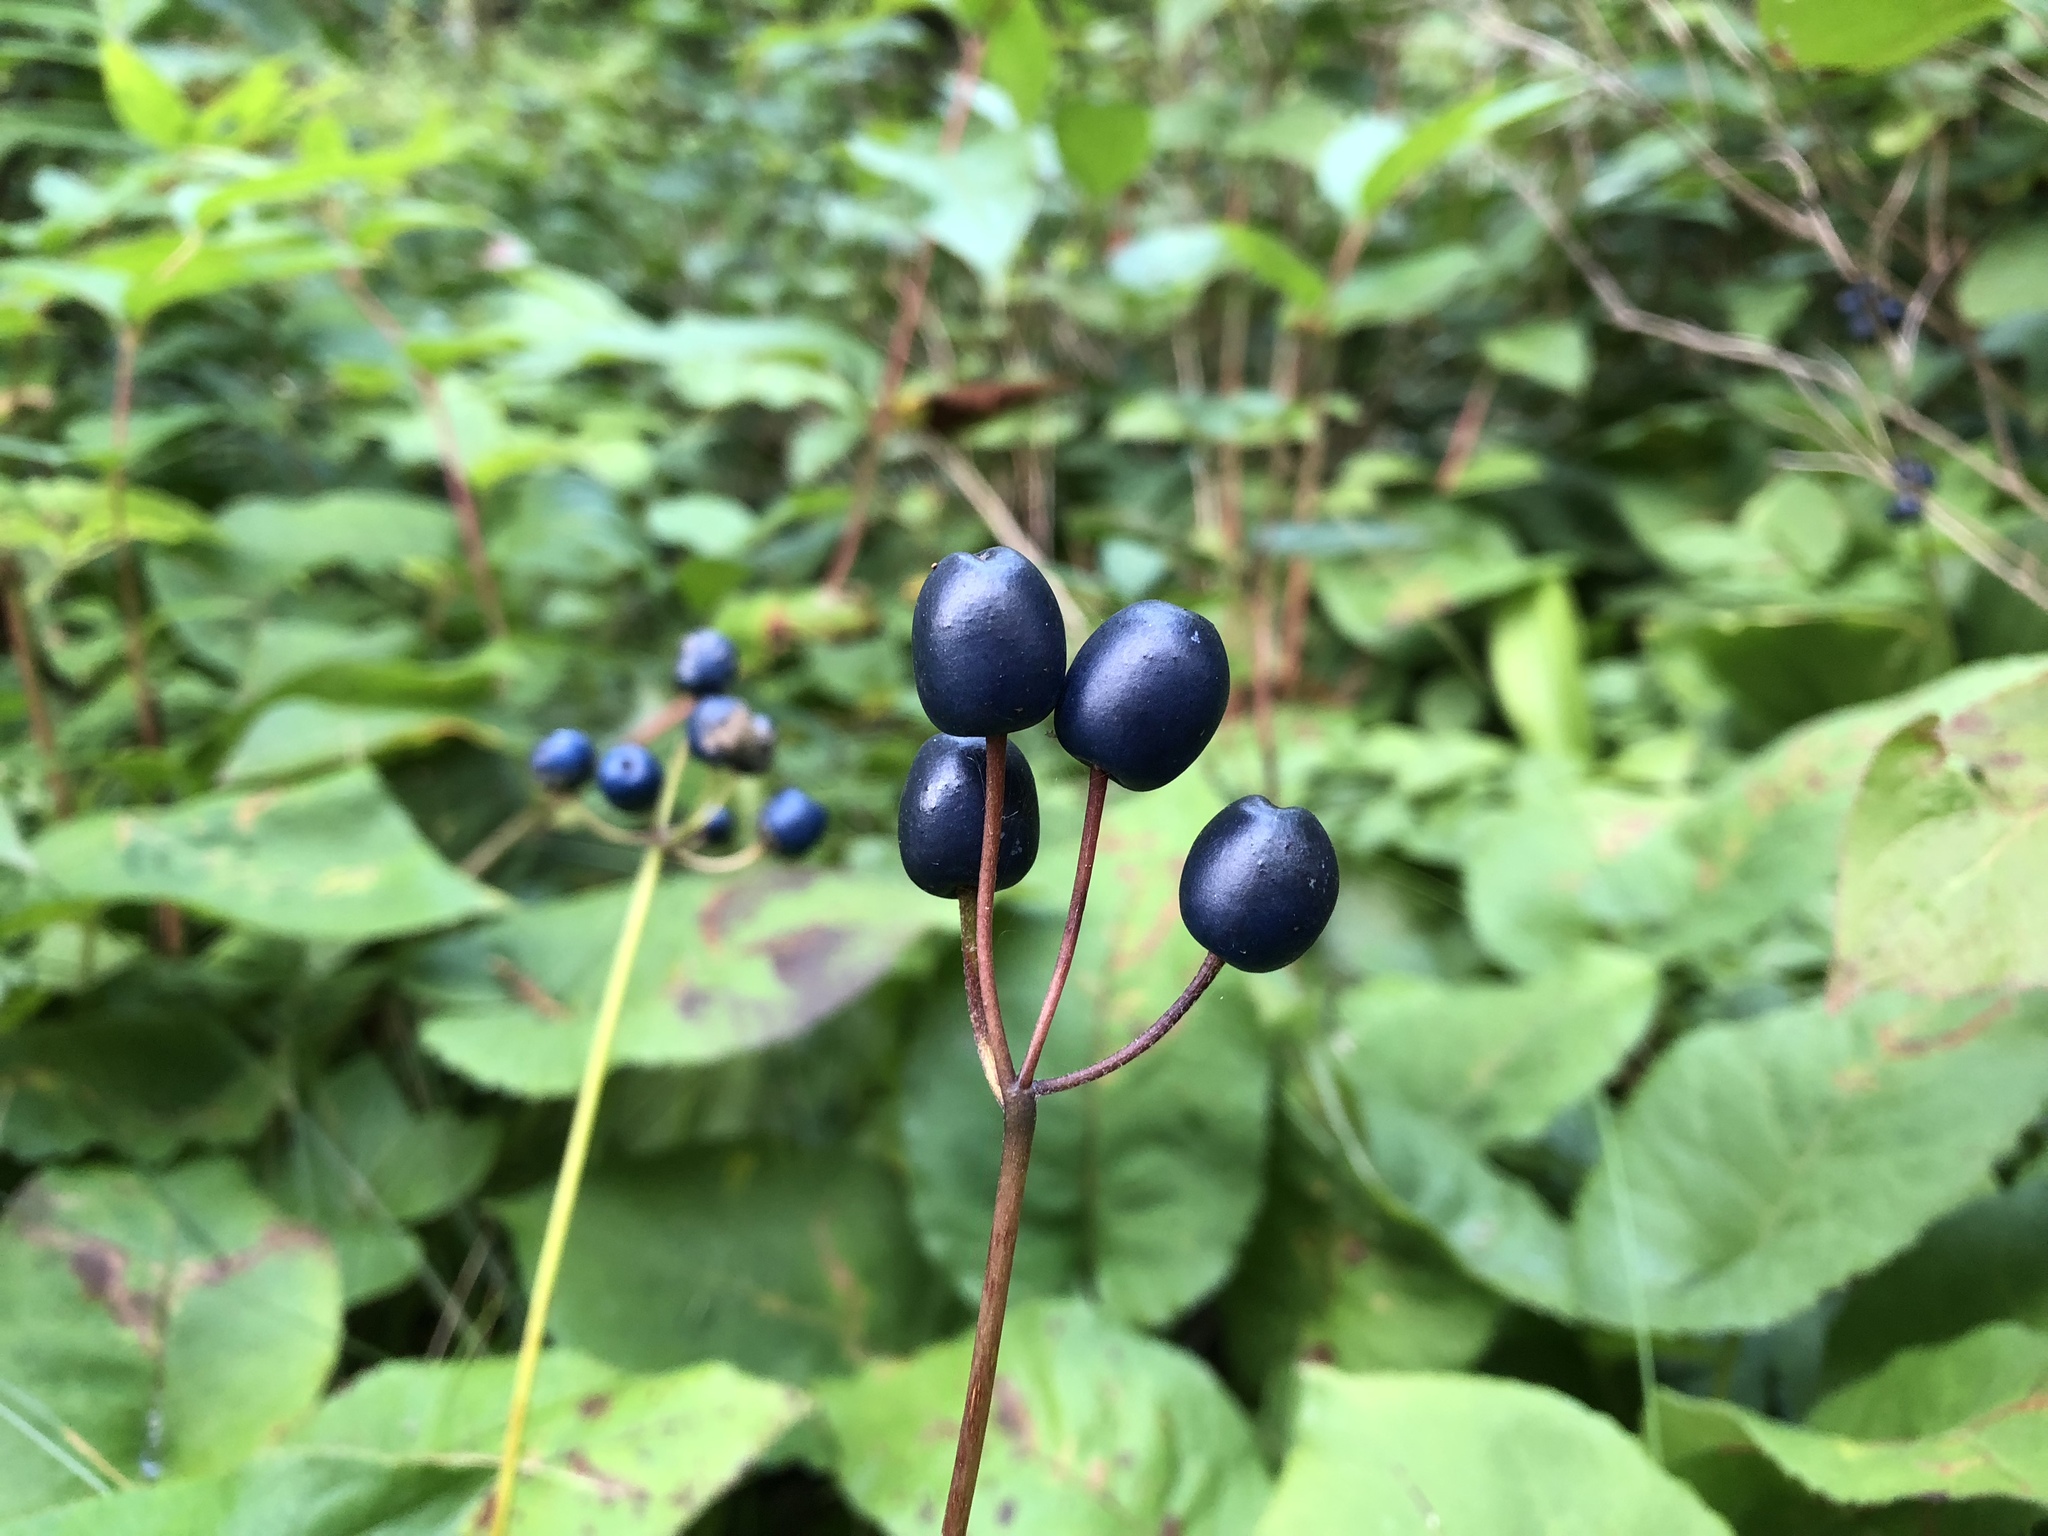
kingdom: Plantae
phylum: Tracheophyta
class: Liliopsida
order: Liliales
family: Liliaceae
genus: Clintonia
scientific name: Clintonia borealis
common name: Yellow clintonia
